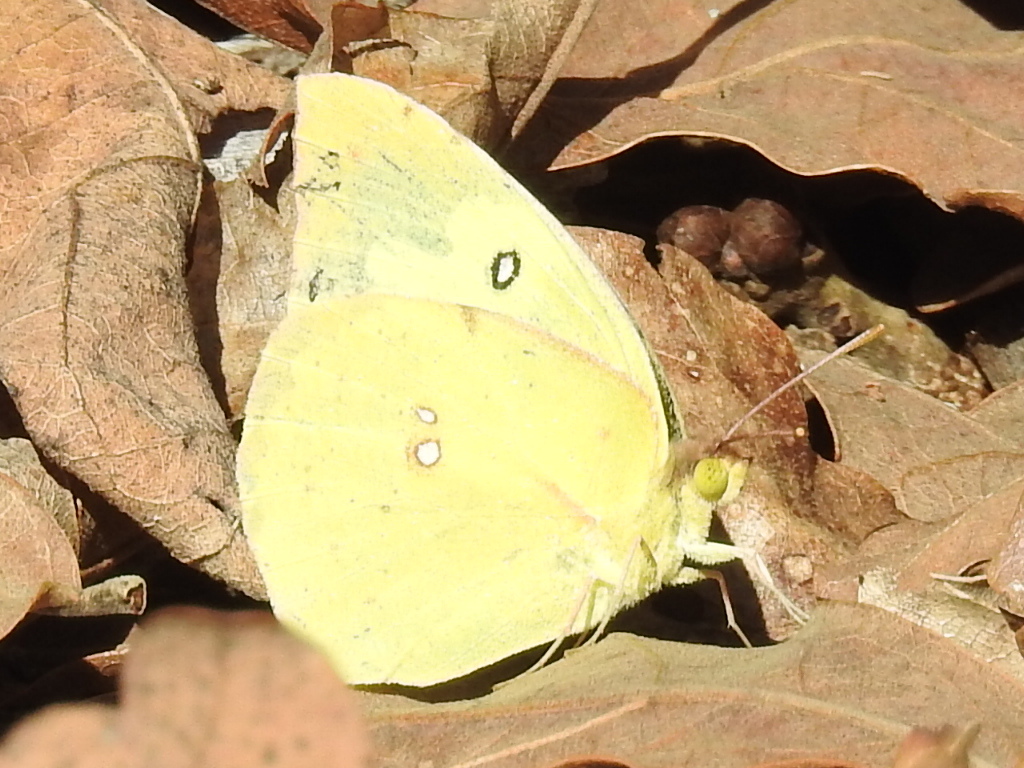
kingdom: Animalia
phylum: Arthropoda
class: Insecta
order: Lepidoptera
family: Pieridae
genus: Zerene
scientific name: Zerene cesonia
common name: Southern dogface
